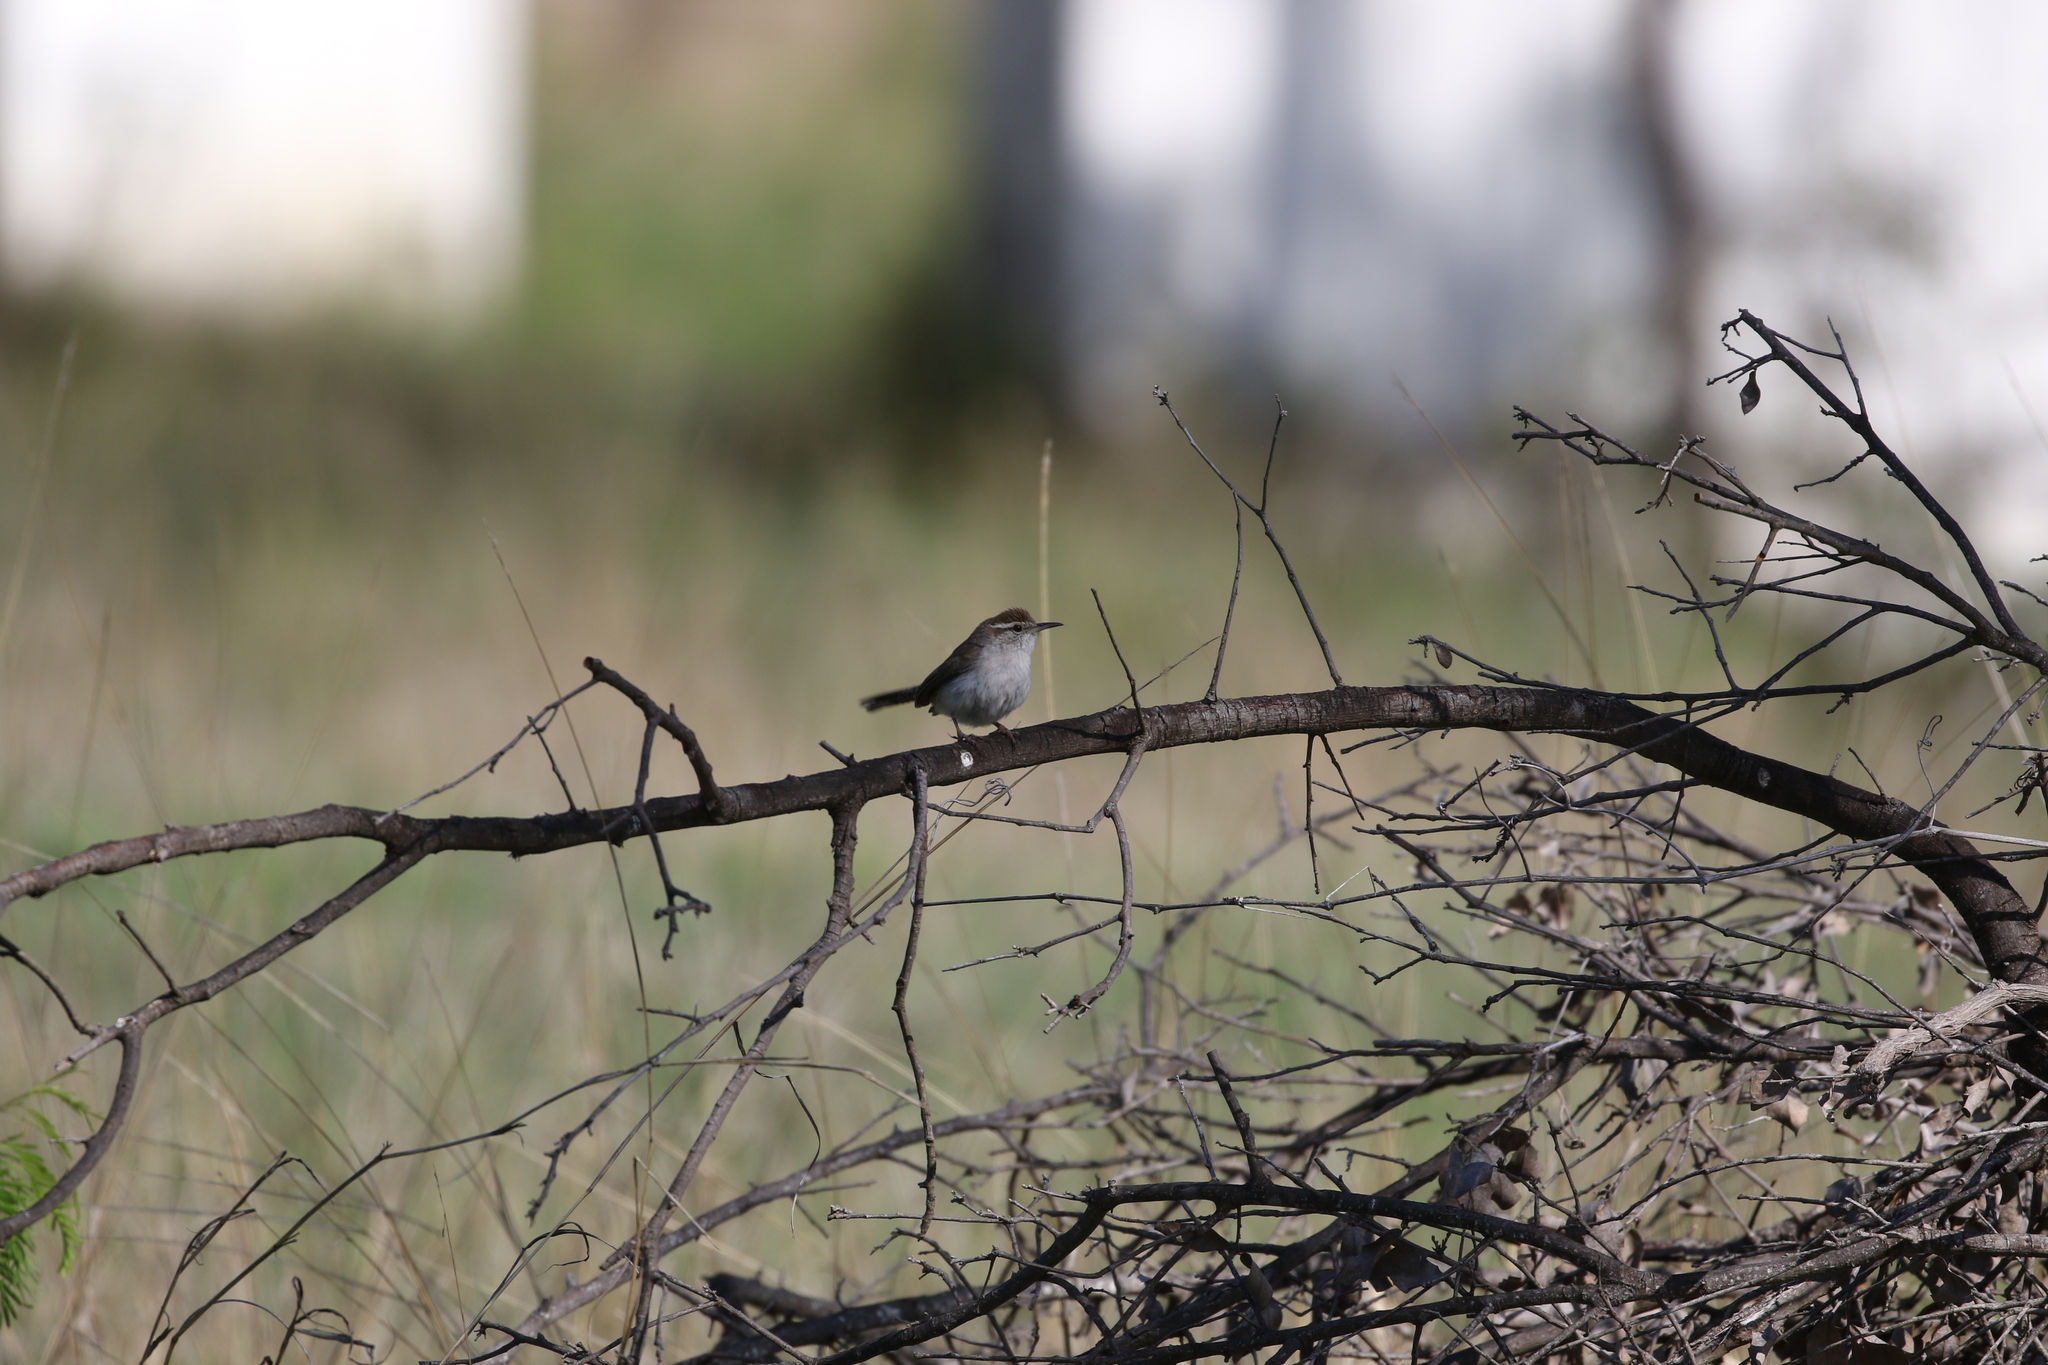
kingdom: Animalia
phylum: Chordata
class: Aves
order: Passeriformes
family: Troglodytidae
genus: Thryomanes
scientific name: Thryomanes bewickii
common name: Bewick's wren
